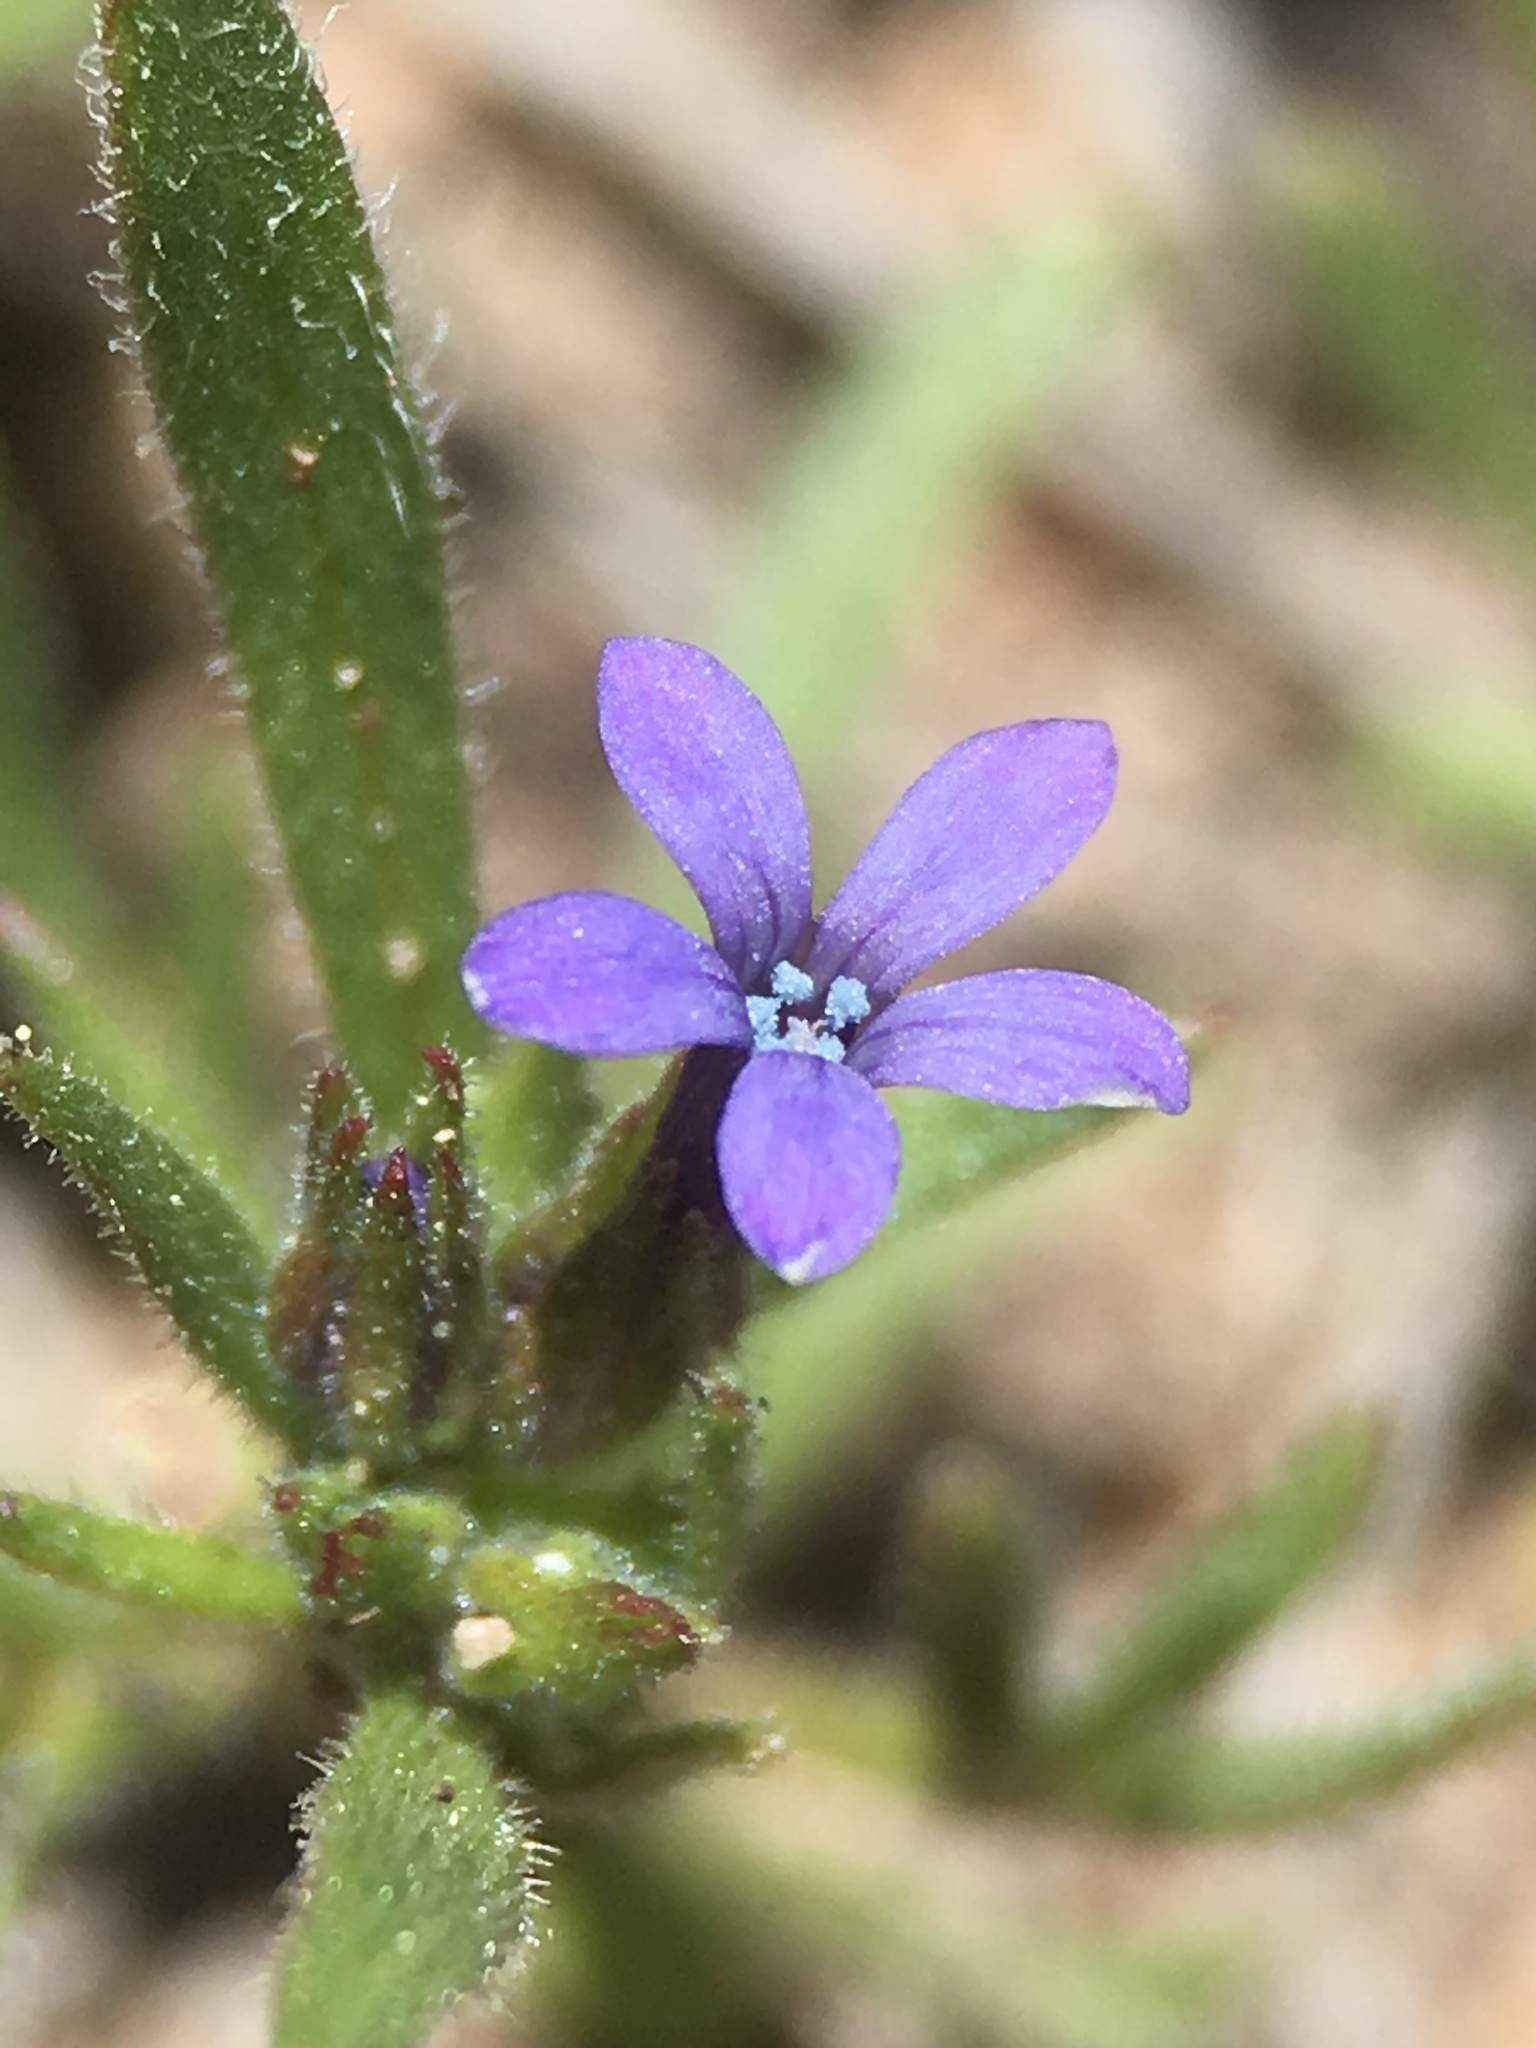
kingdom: Plantae
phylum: Tracheophyta
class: Magnoliopsida
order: Ericales
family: Polemoniaceae
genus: Allophyllum
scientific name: Allophyllum gilioides
